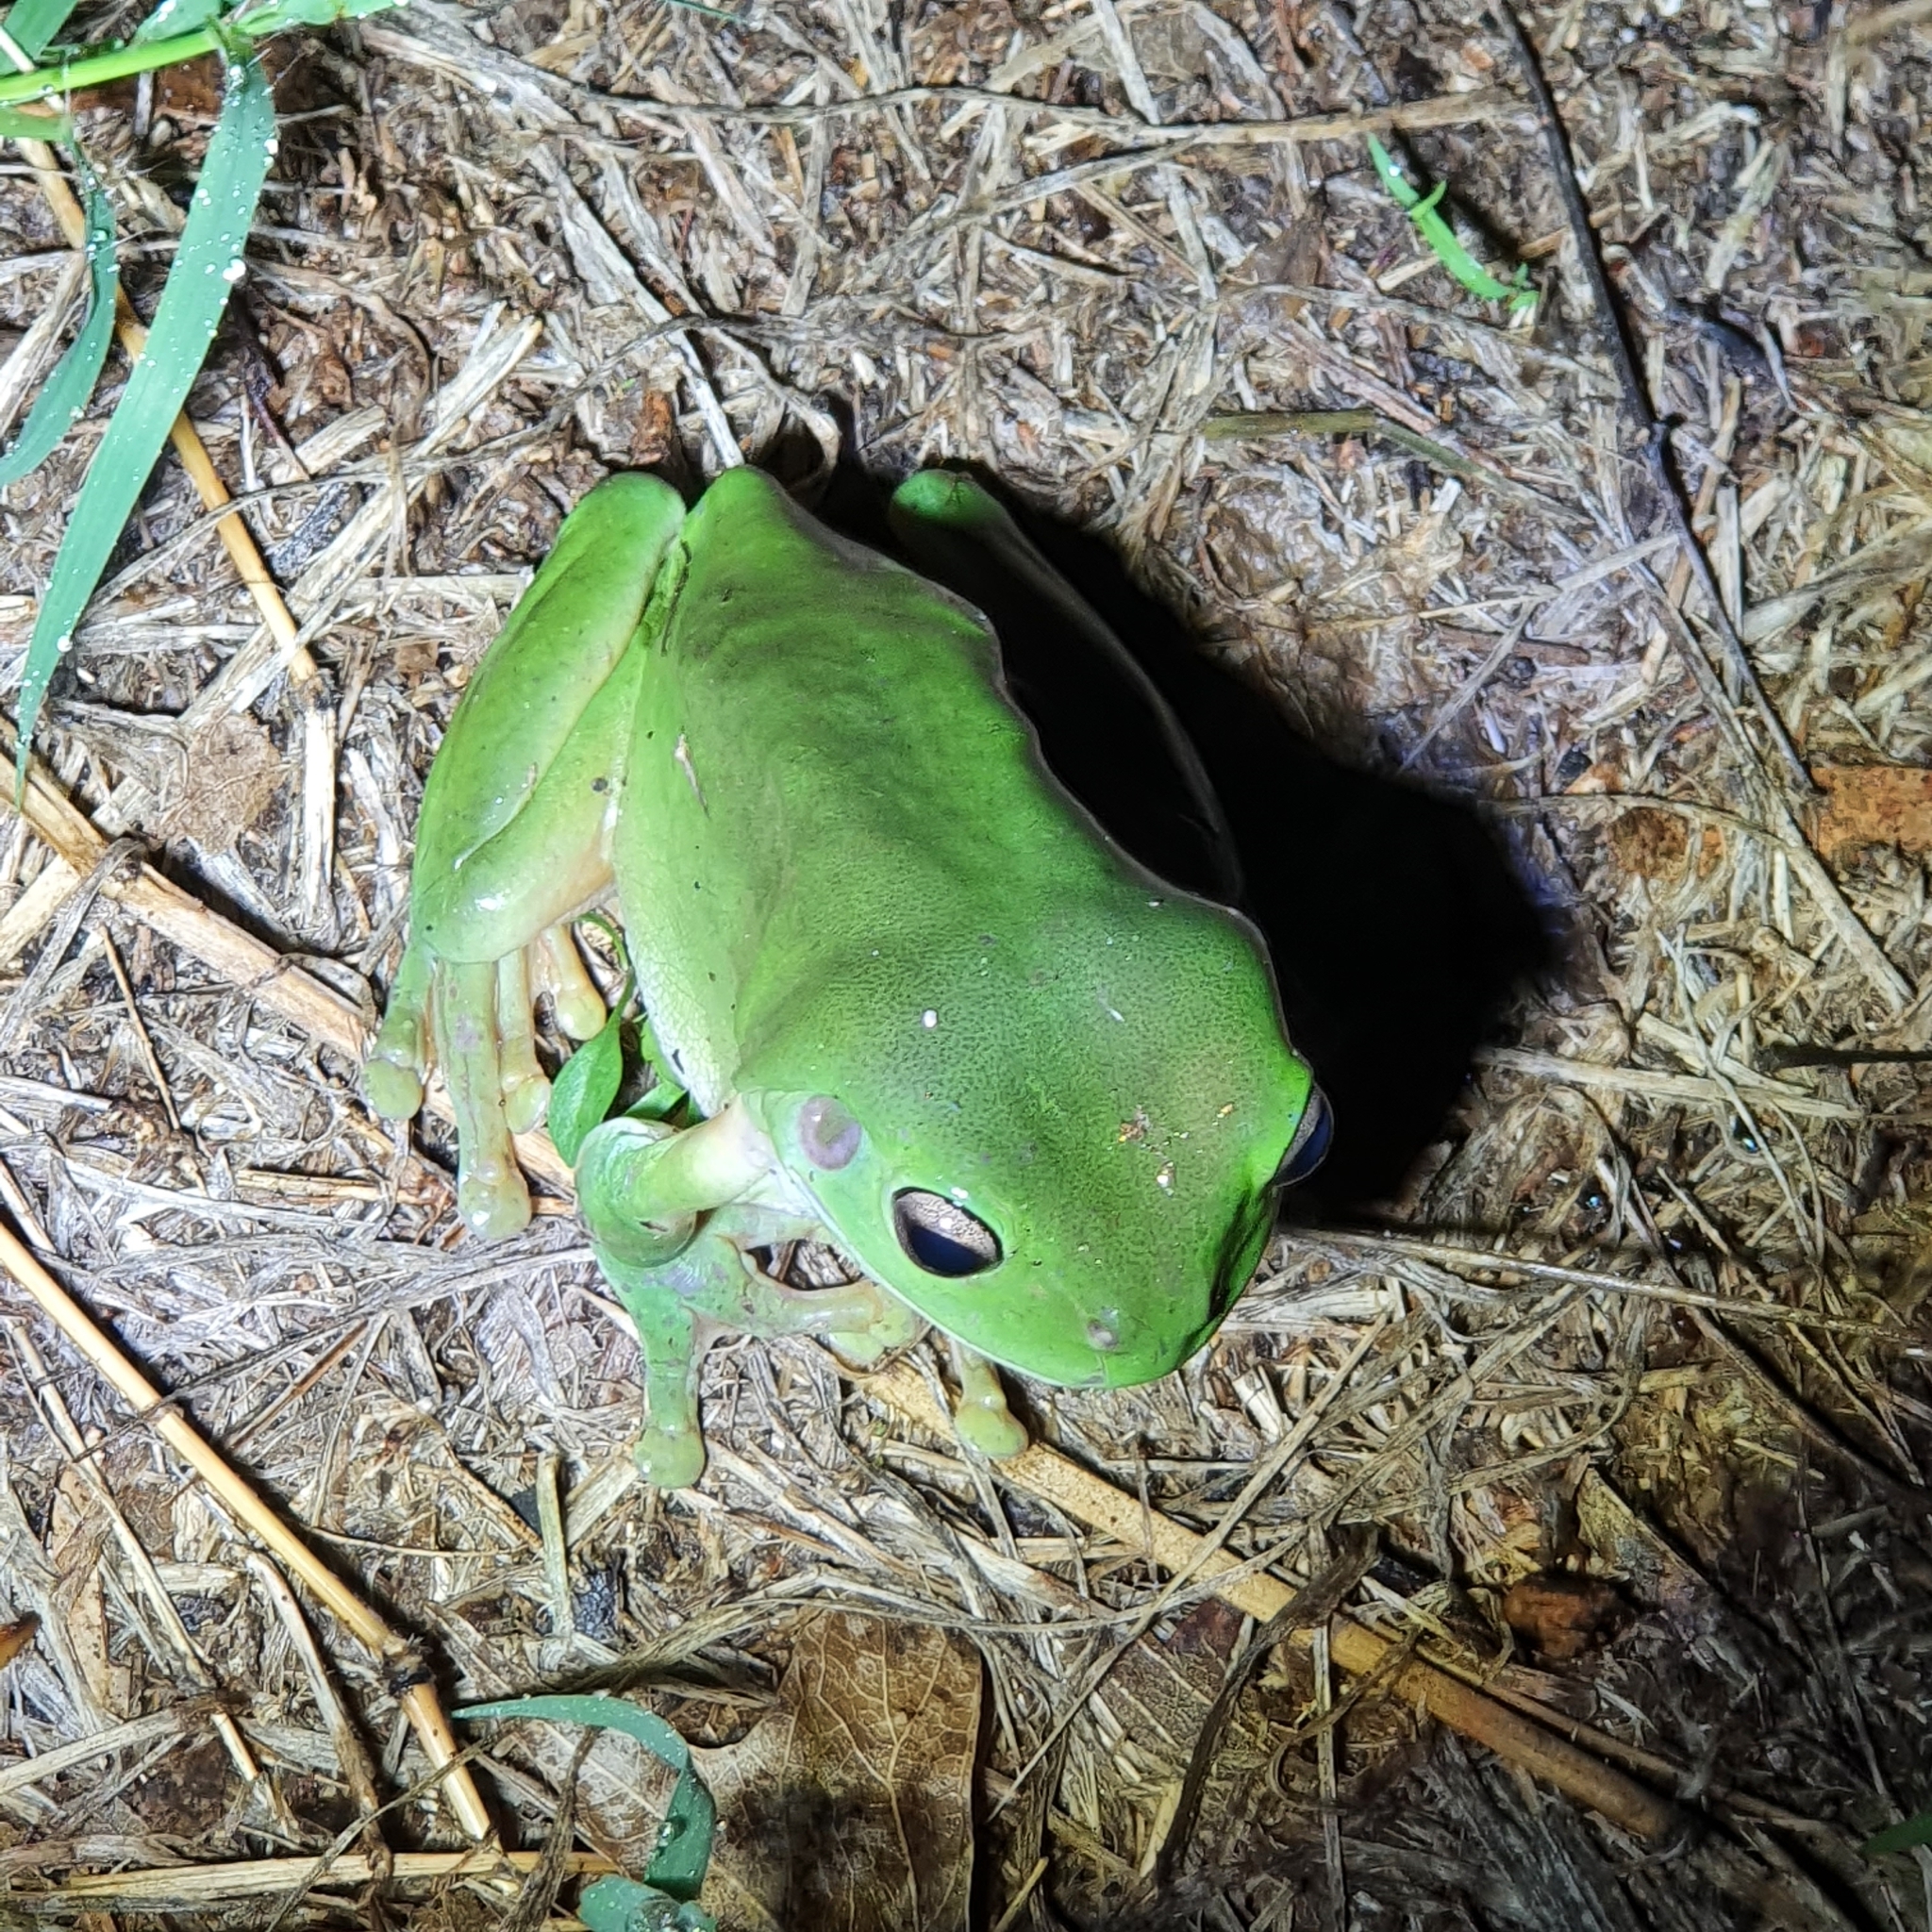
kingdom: Animalia
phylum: Chordata
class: Amphibia
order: Anura
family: Pelodryadidae
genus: Ranoidea
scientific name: Ranoidea caerulea
